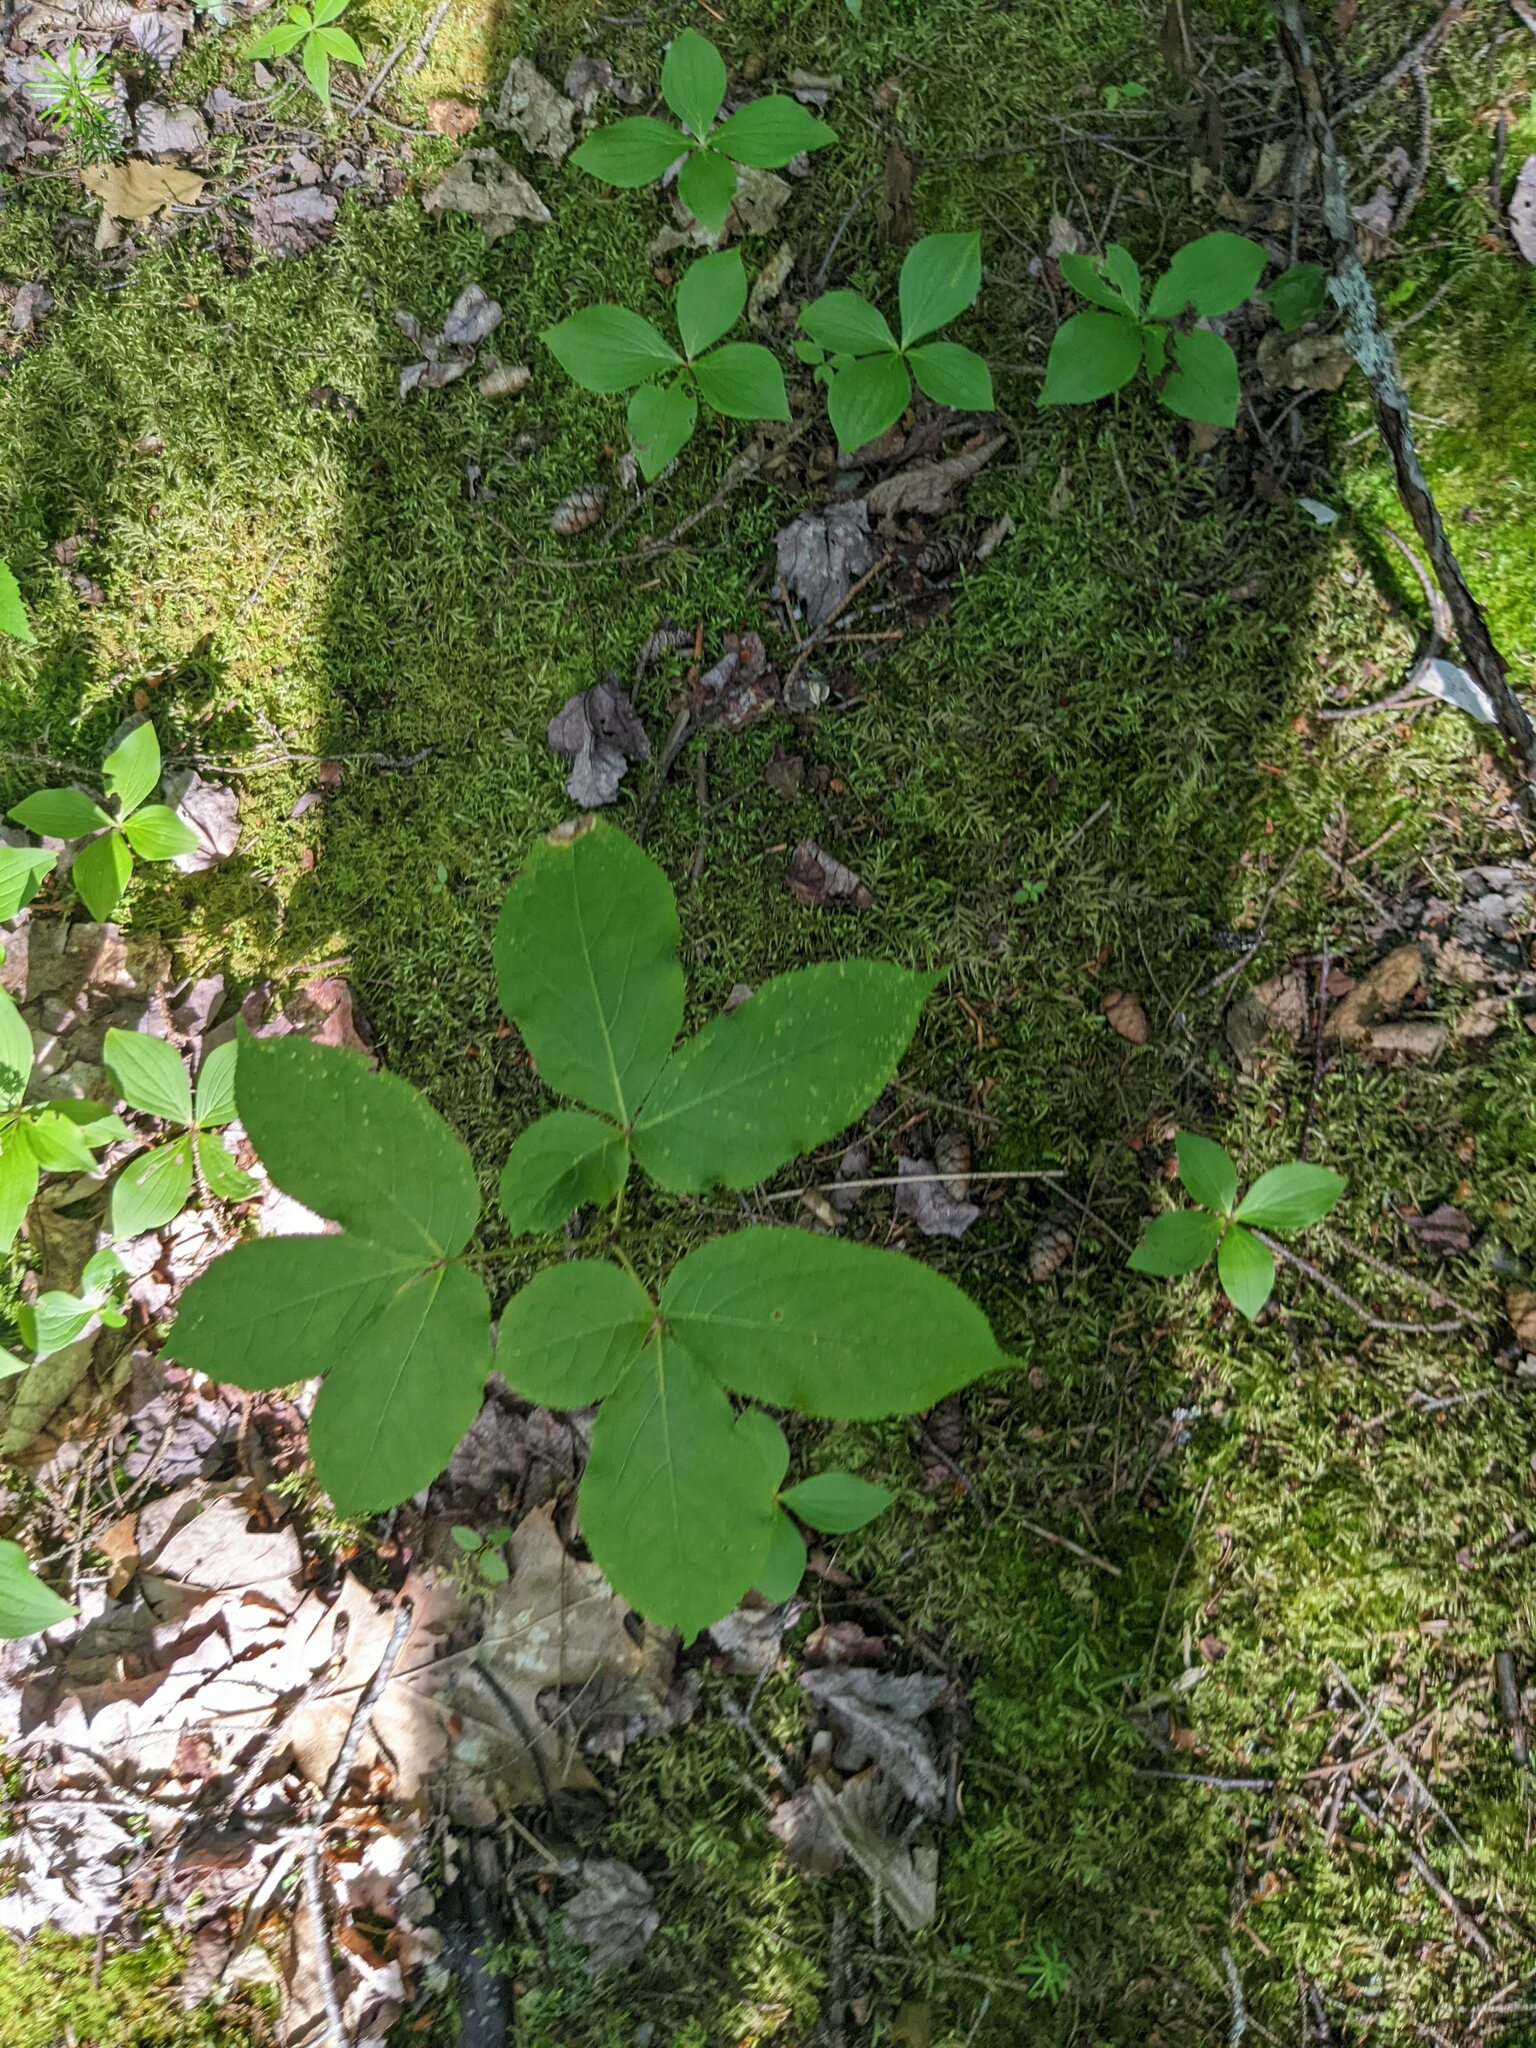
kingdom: Plantae
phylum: Tracheophyta
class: Magnoliopsida
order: Apiales
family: Araliaceae
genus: Aralia
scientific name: Aralia nudicaulis
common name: Wild sarsaparilla
